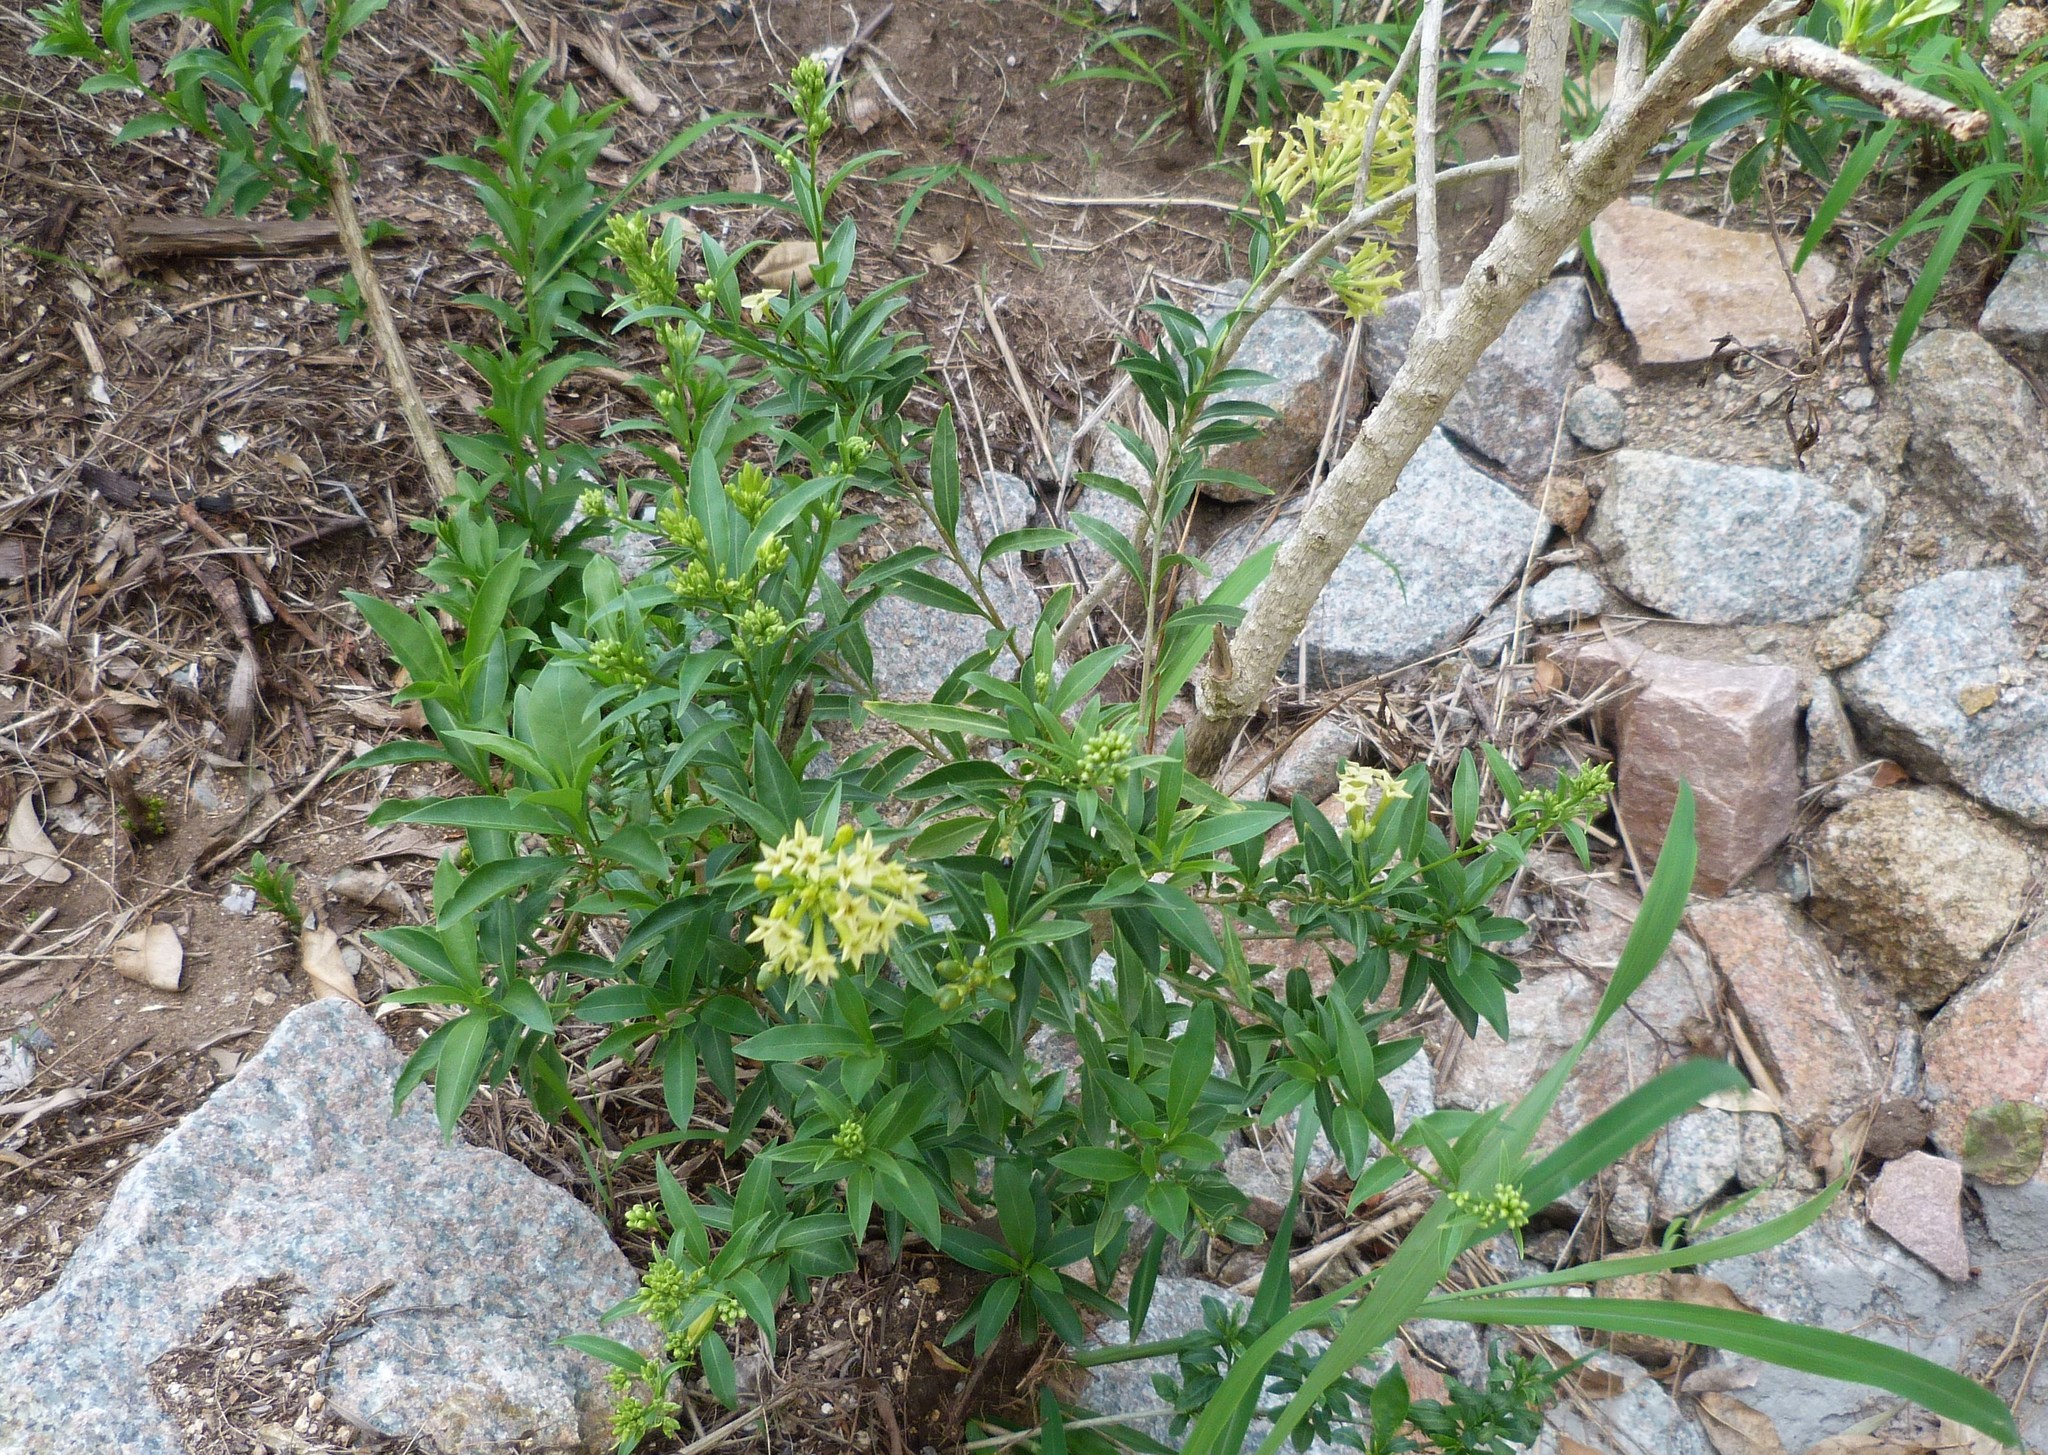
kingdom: Plantae
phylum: Tracheophyta
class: Magnoliopsida
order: Solanales
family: Solanaceae
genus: Cestrum
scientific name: Cestrum parqui
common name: Chilean cestrum
